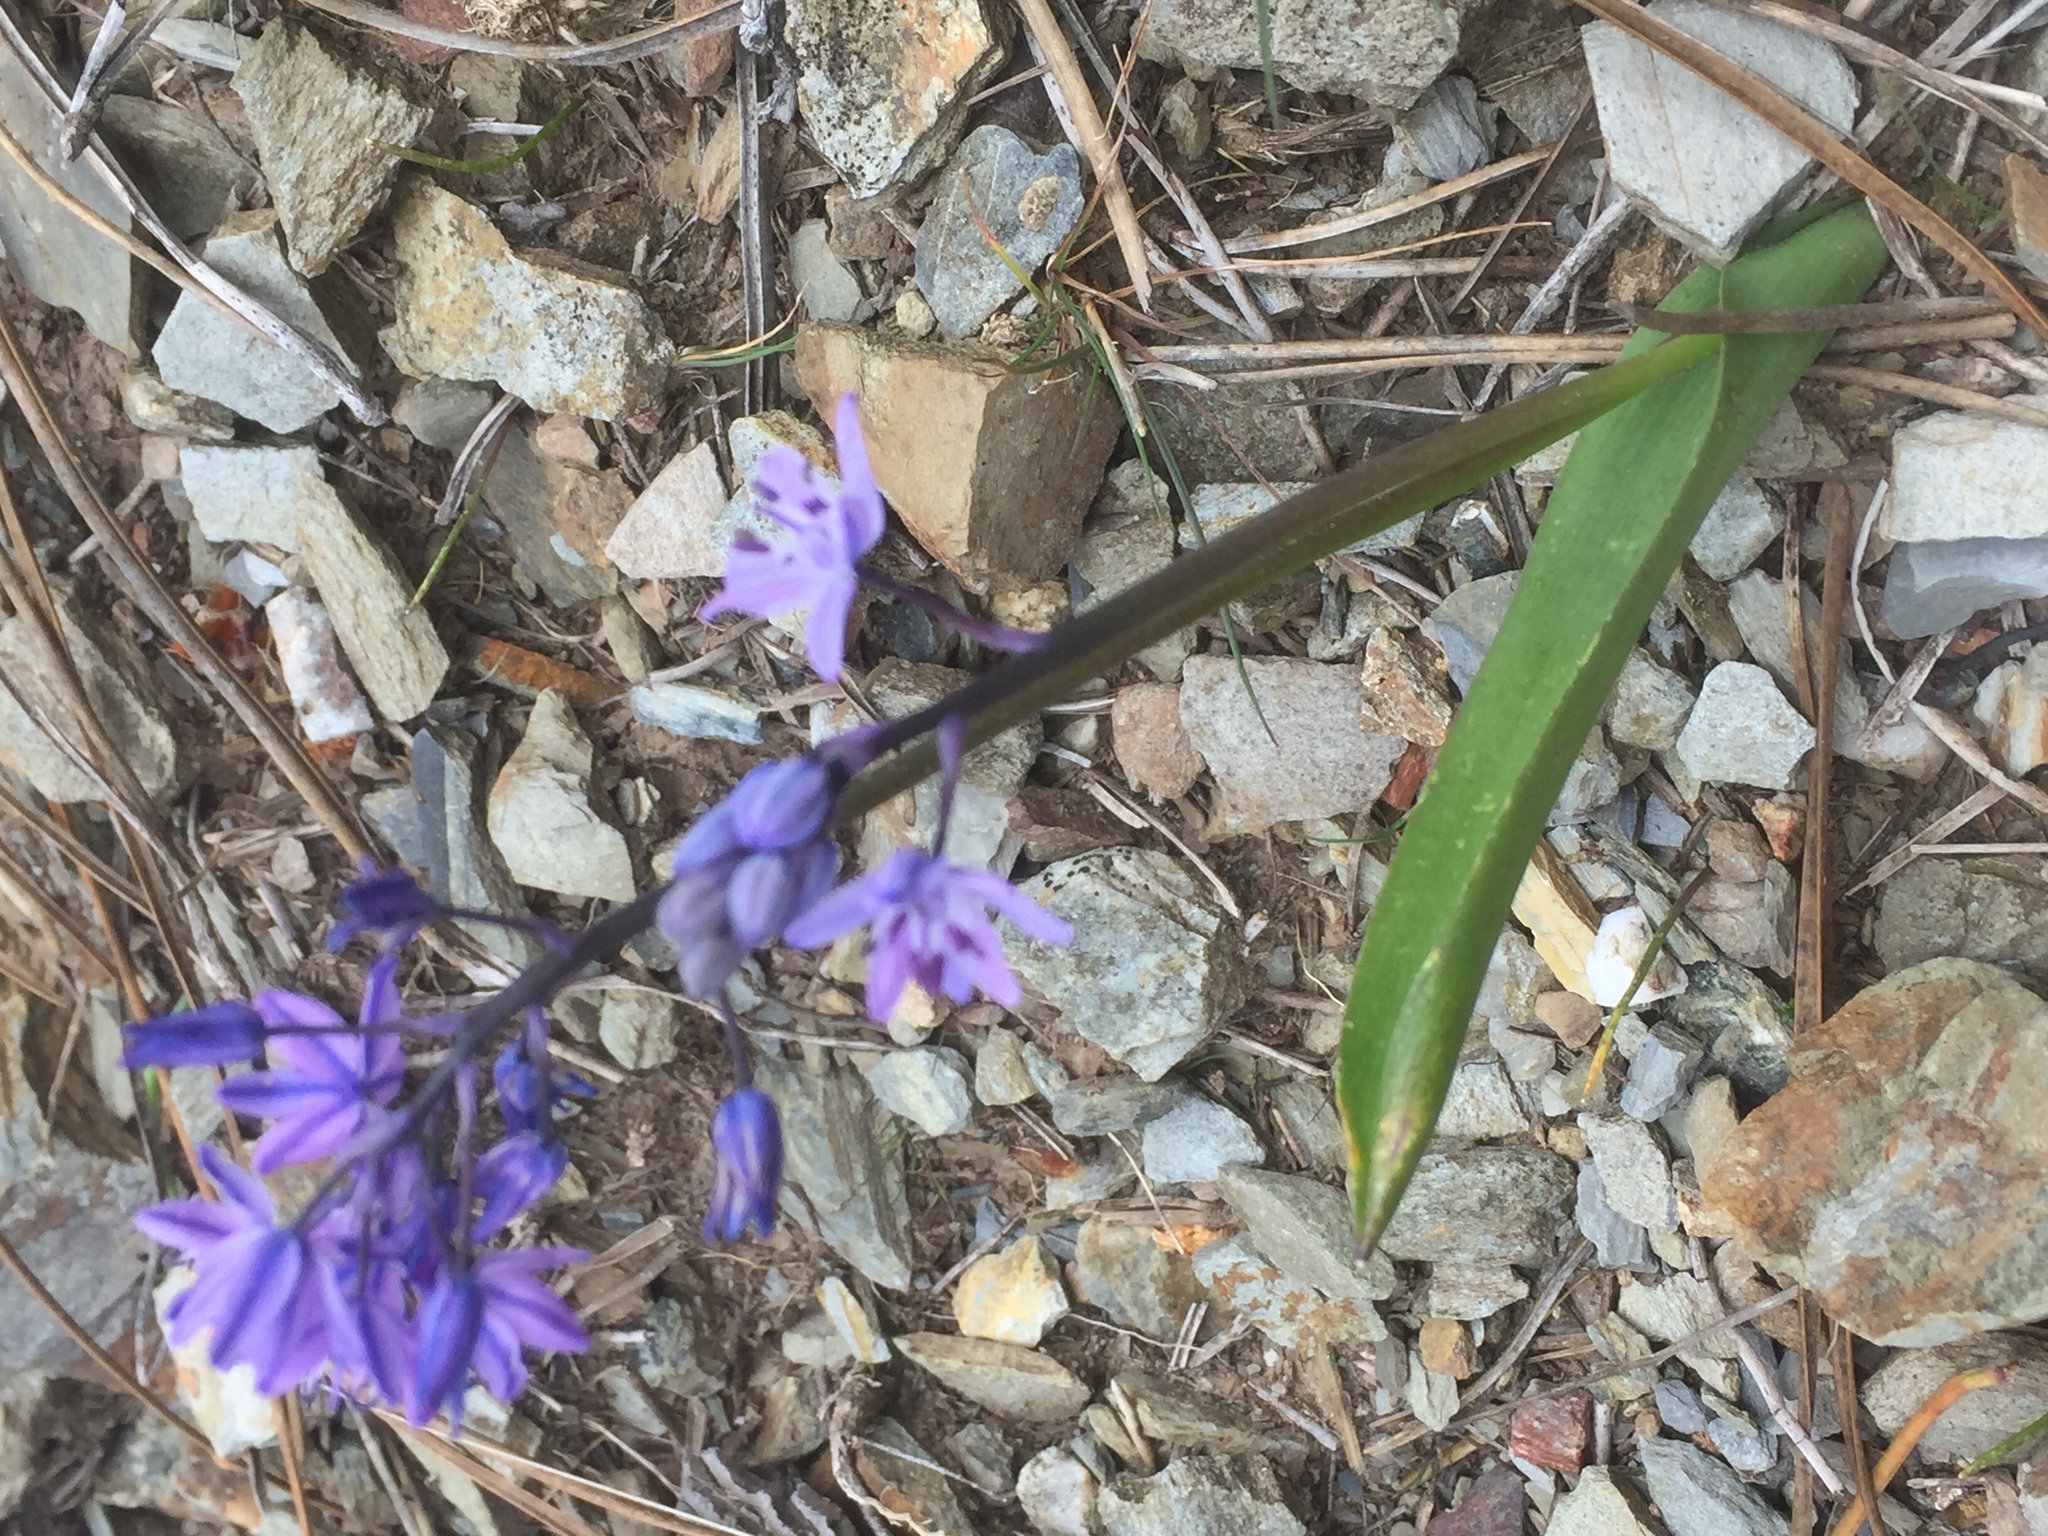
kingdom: Plantae
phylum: Tracheophyta
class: Liliopsida
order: Asparagales
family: Asparagaceae
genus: Scilla
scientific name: Scilla monophyllos
